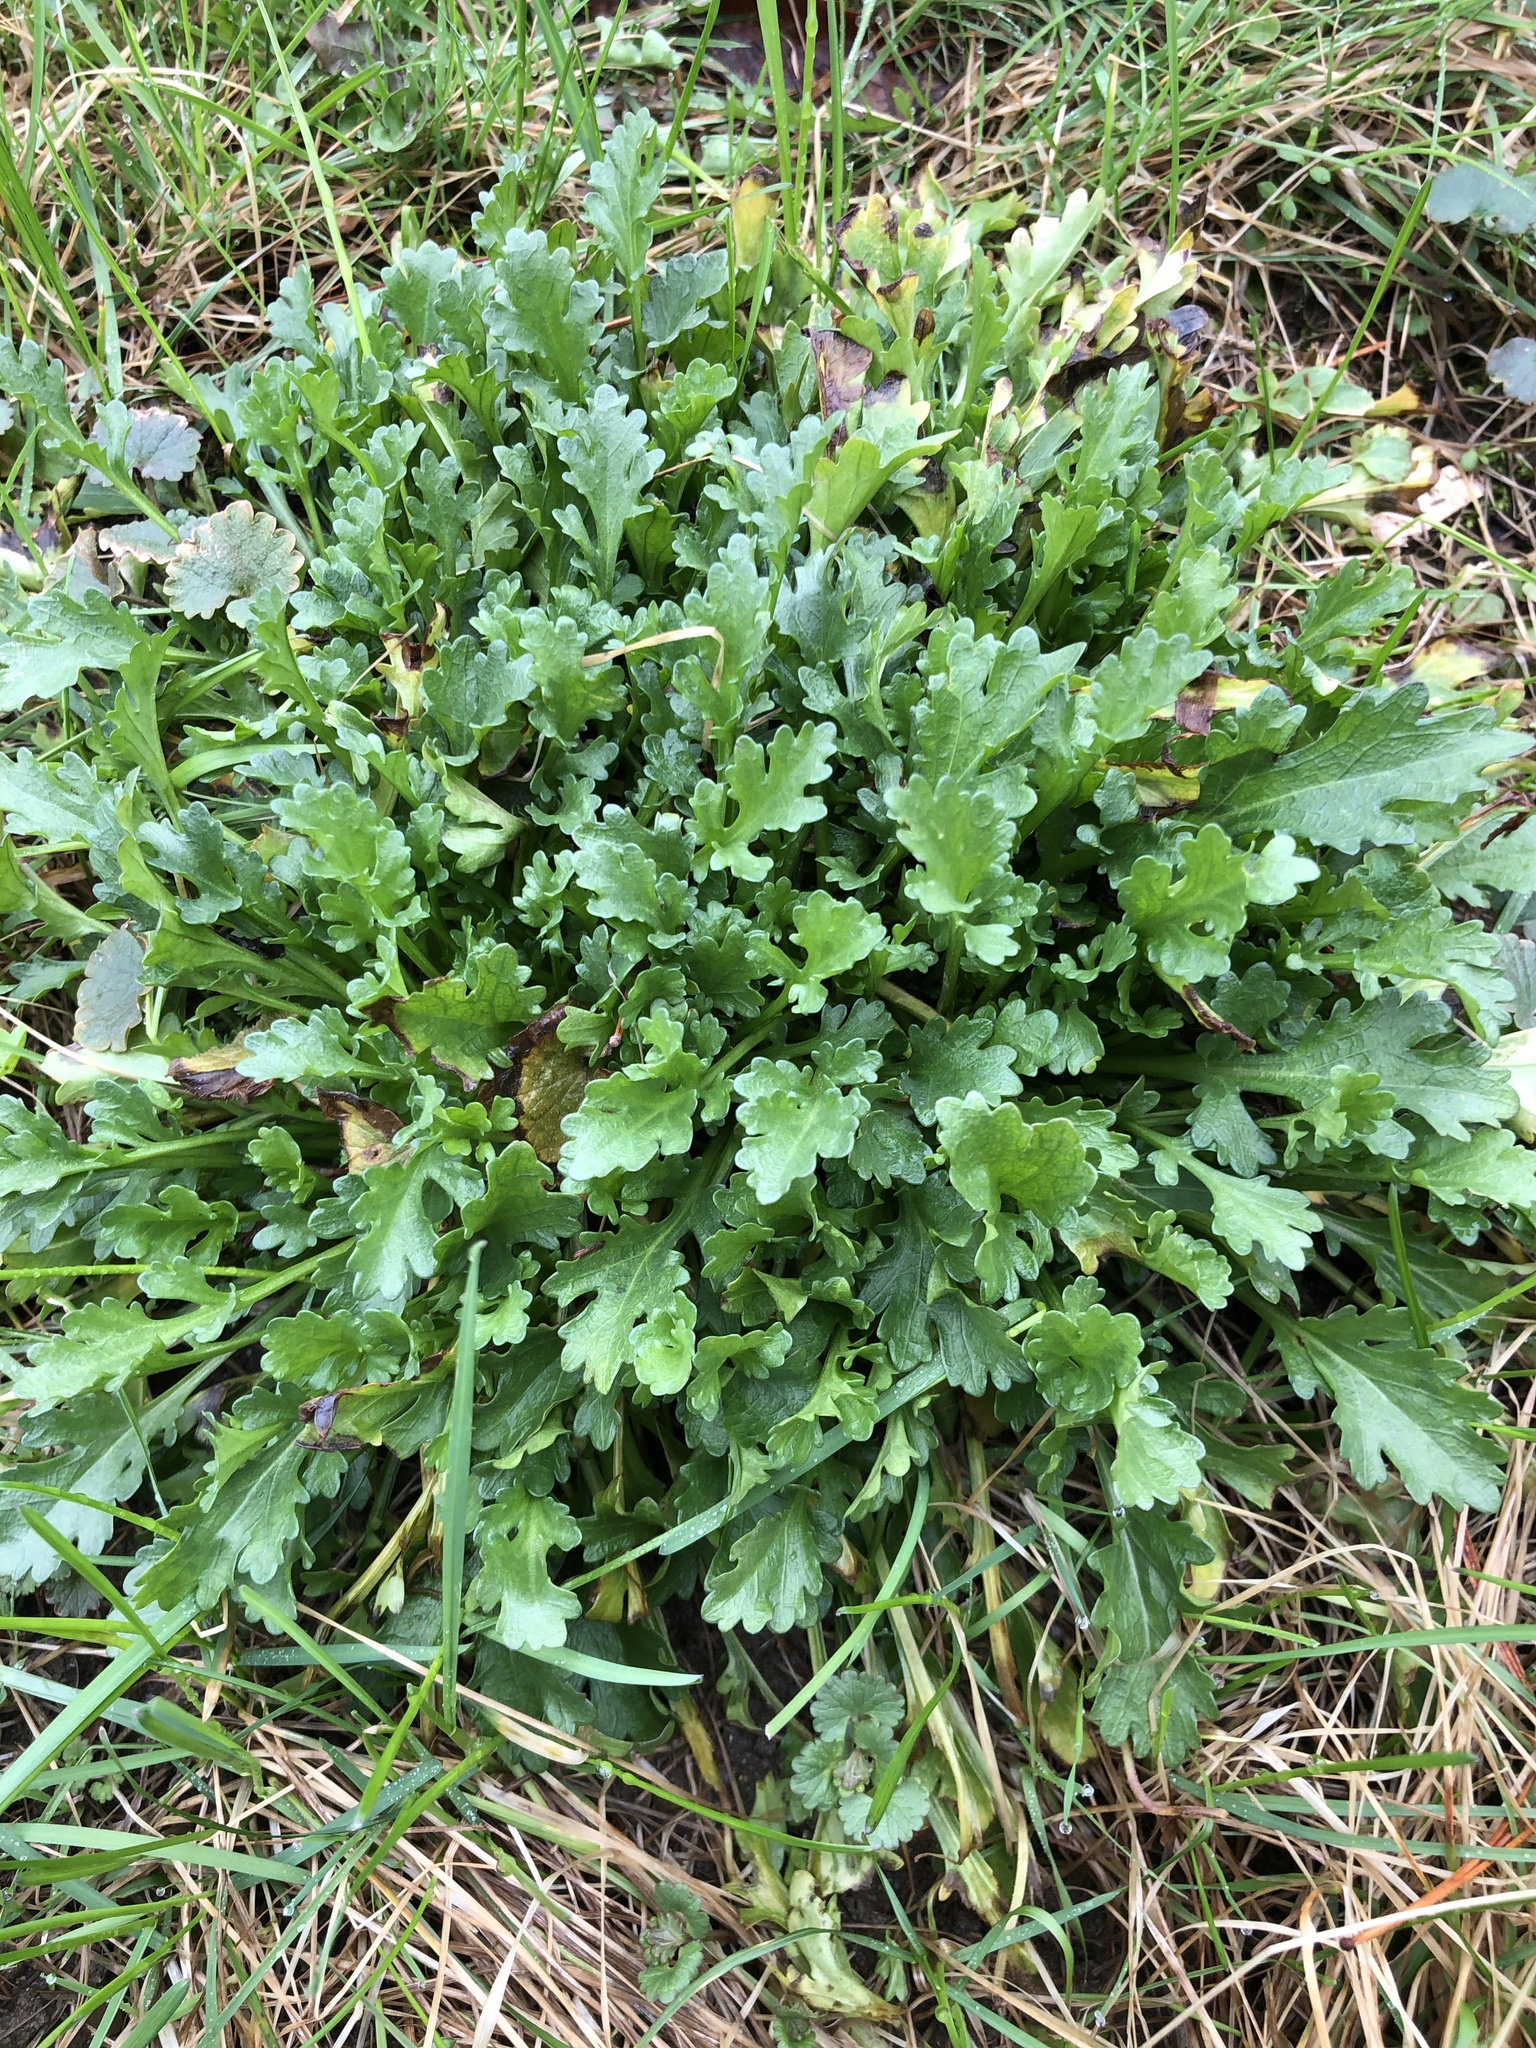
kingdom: Plantae
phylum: Tracheophyta
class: Magnoliopsida
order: Asterales
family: Asteraceae
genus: Leucanthemum
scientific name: Leucanthemum vulgare
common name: Oxeye daisy
